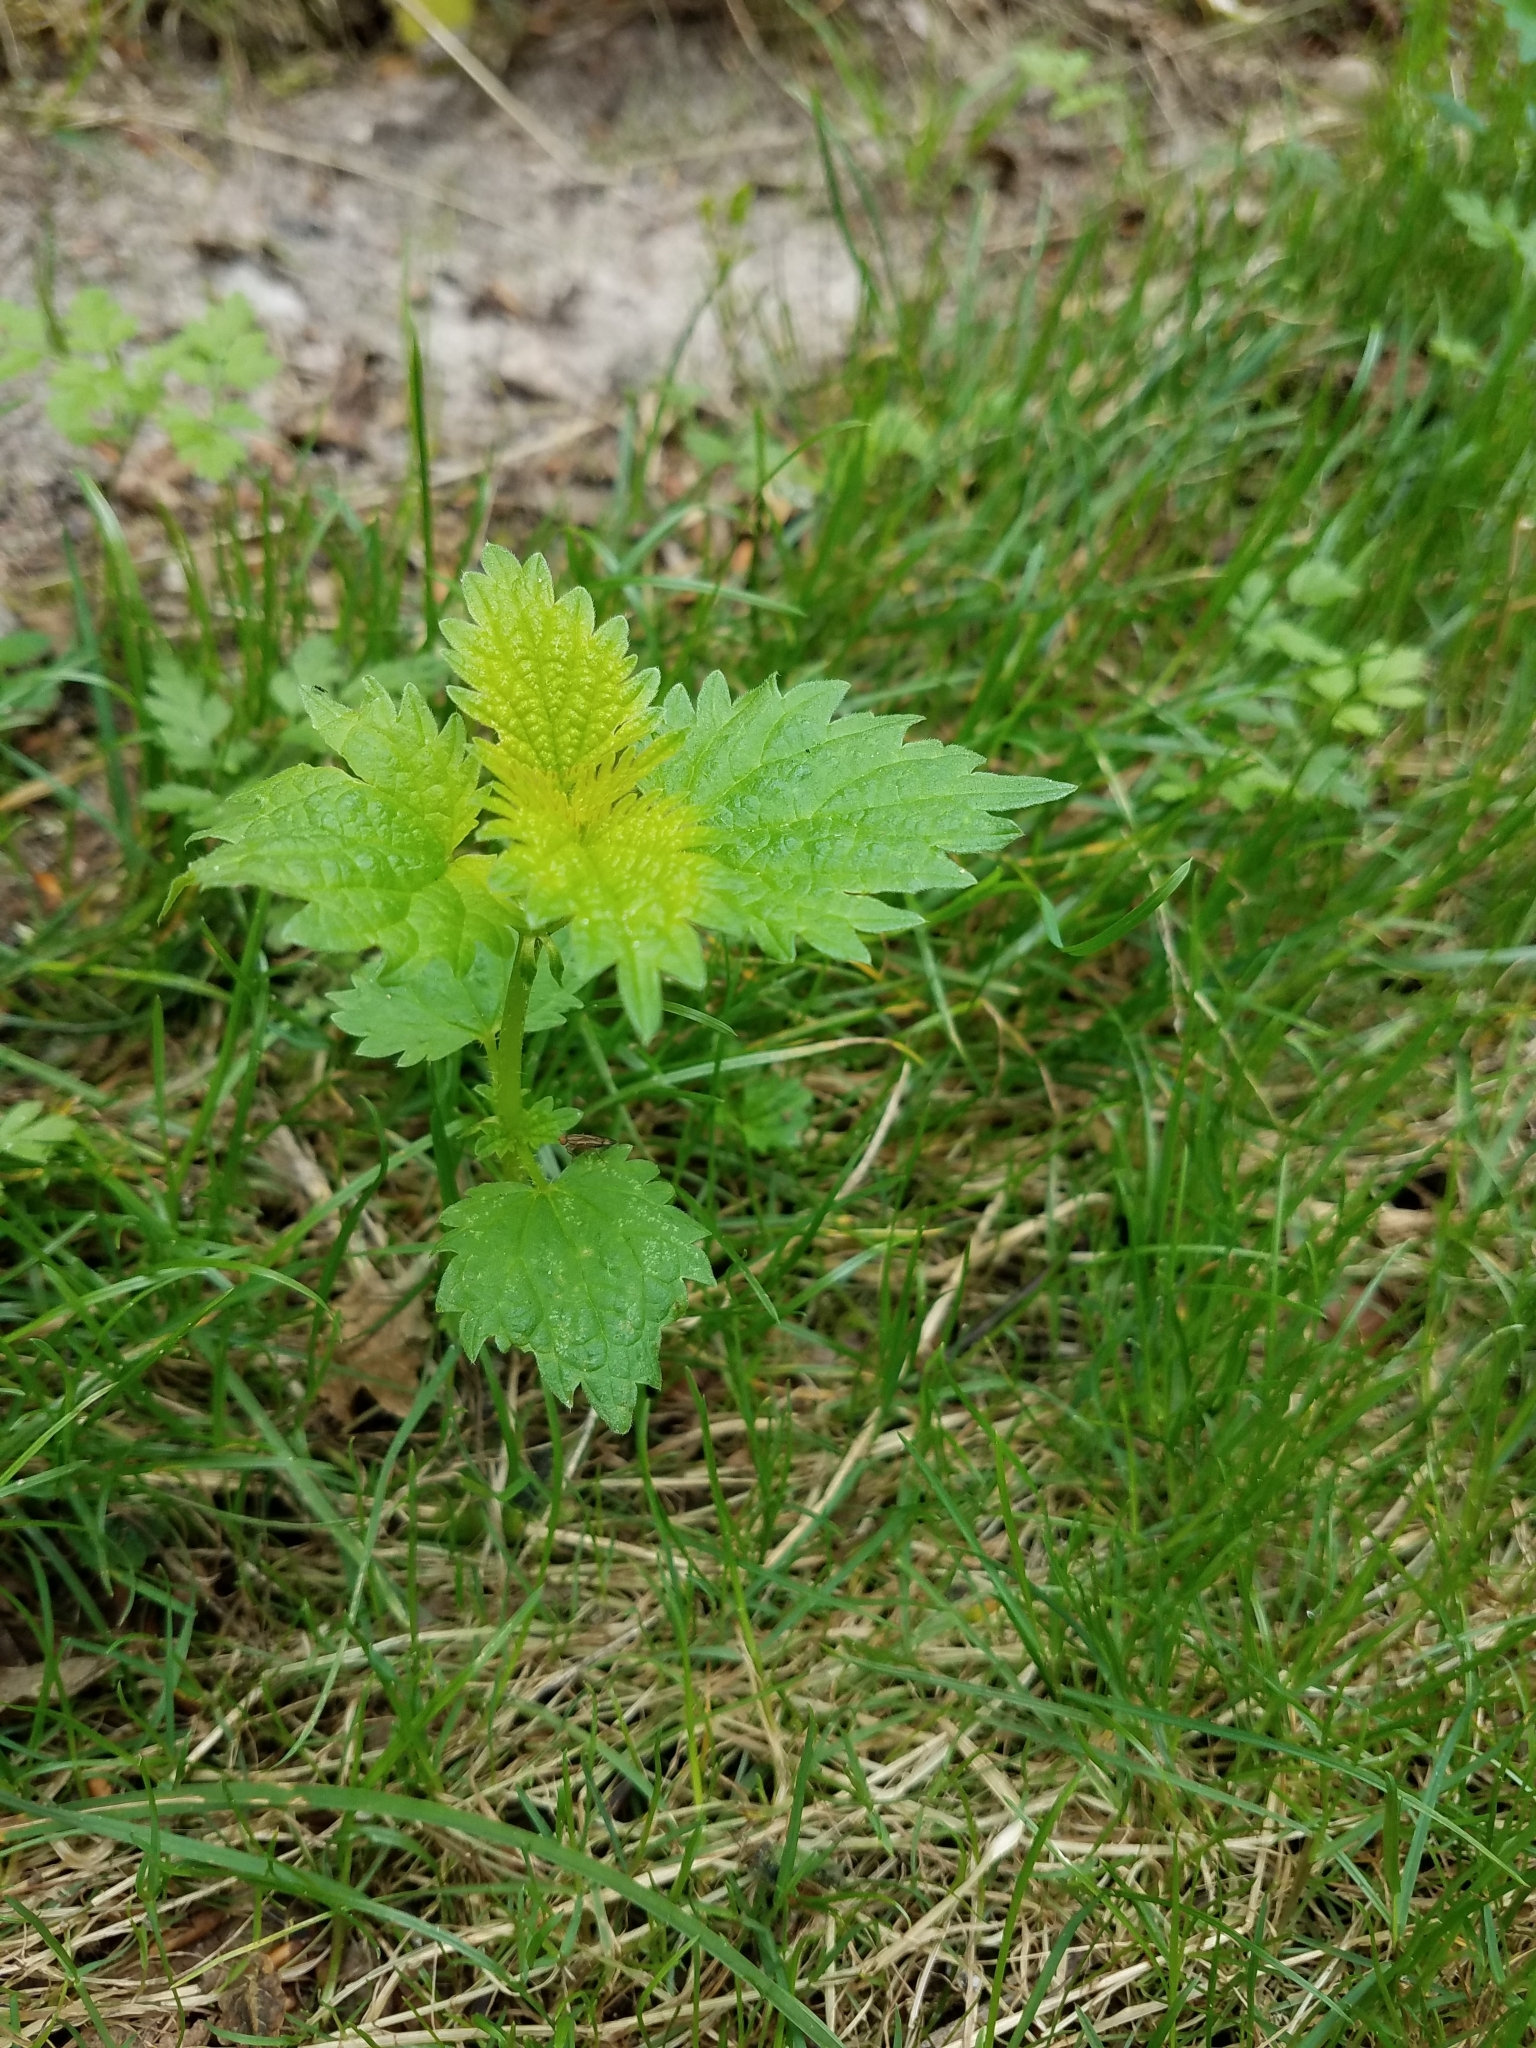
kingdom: Plantae
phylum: Tracheophyta
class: Magnoliopsida
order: Rosales
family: Urticaceae
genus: Urtica
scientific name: Urtica dioica
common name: Common nettle
